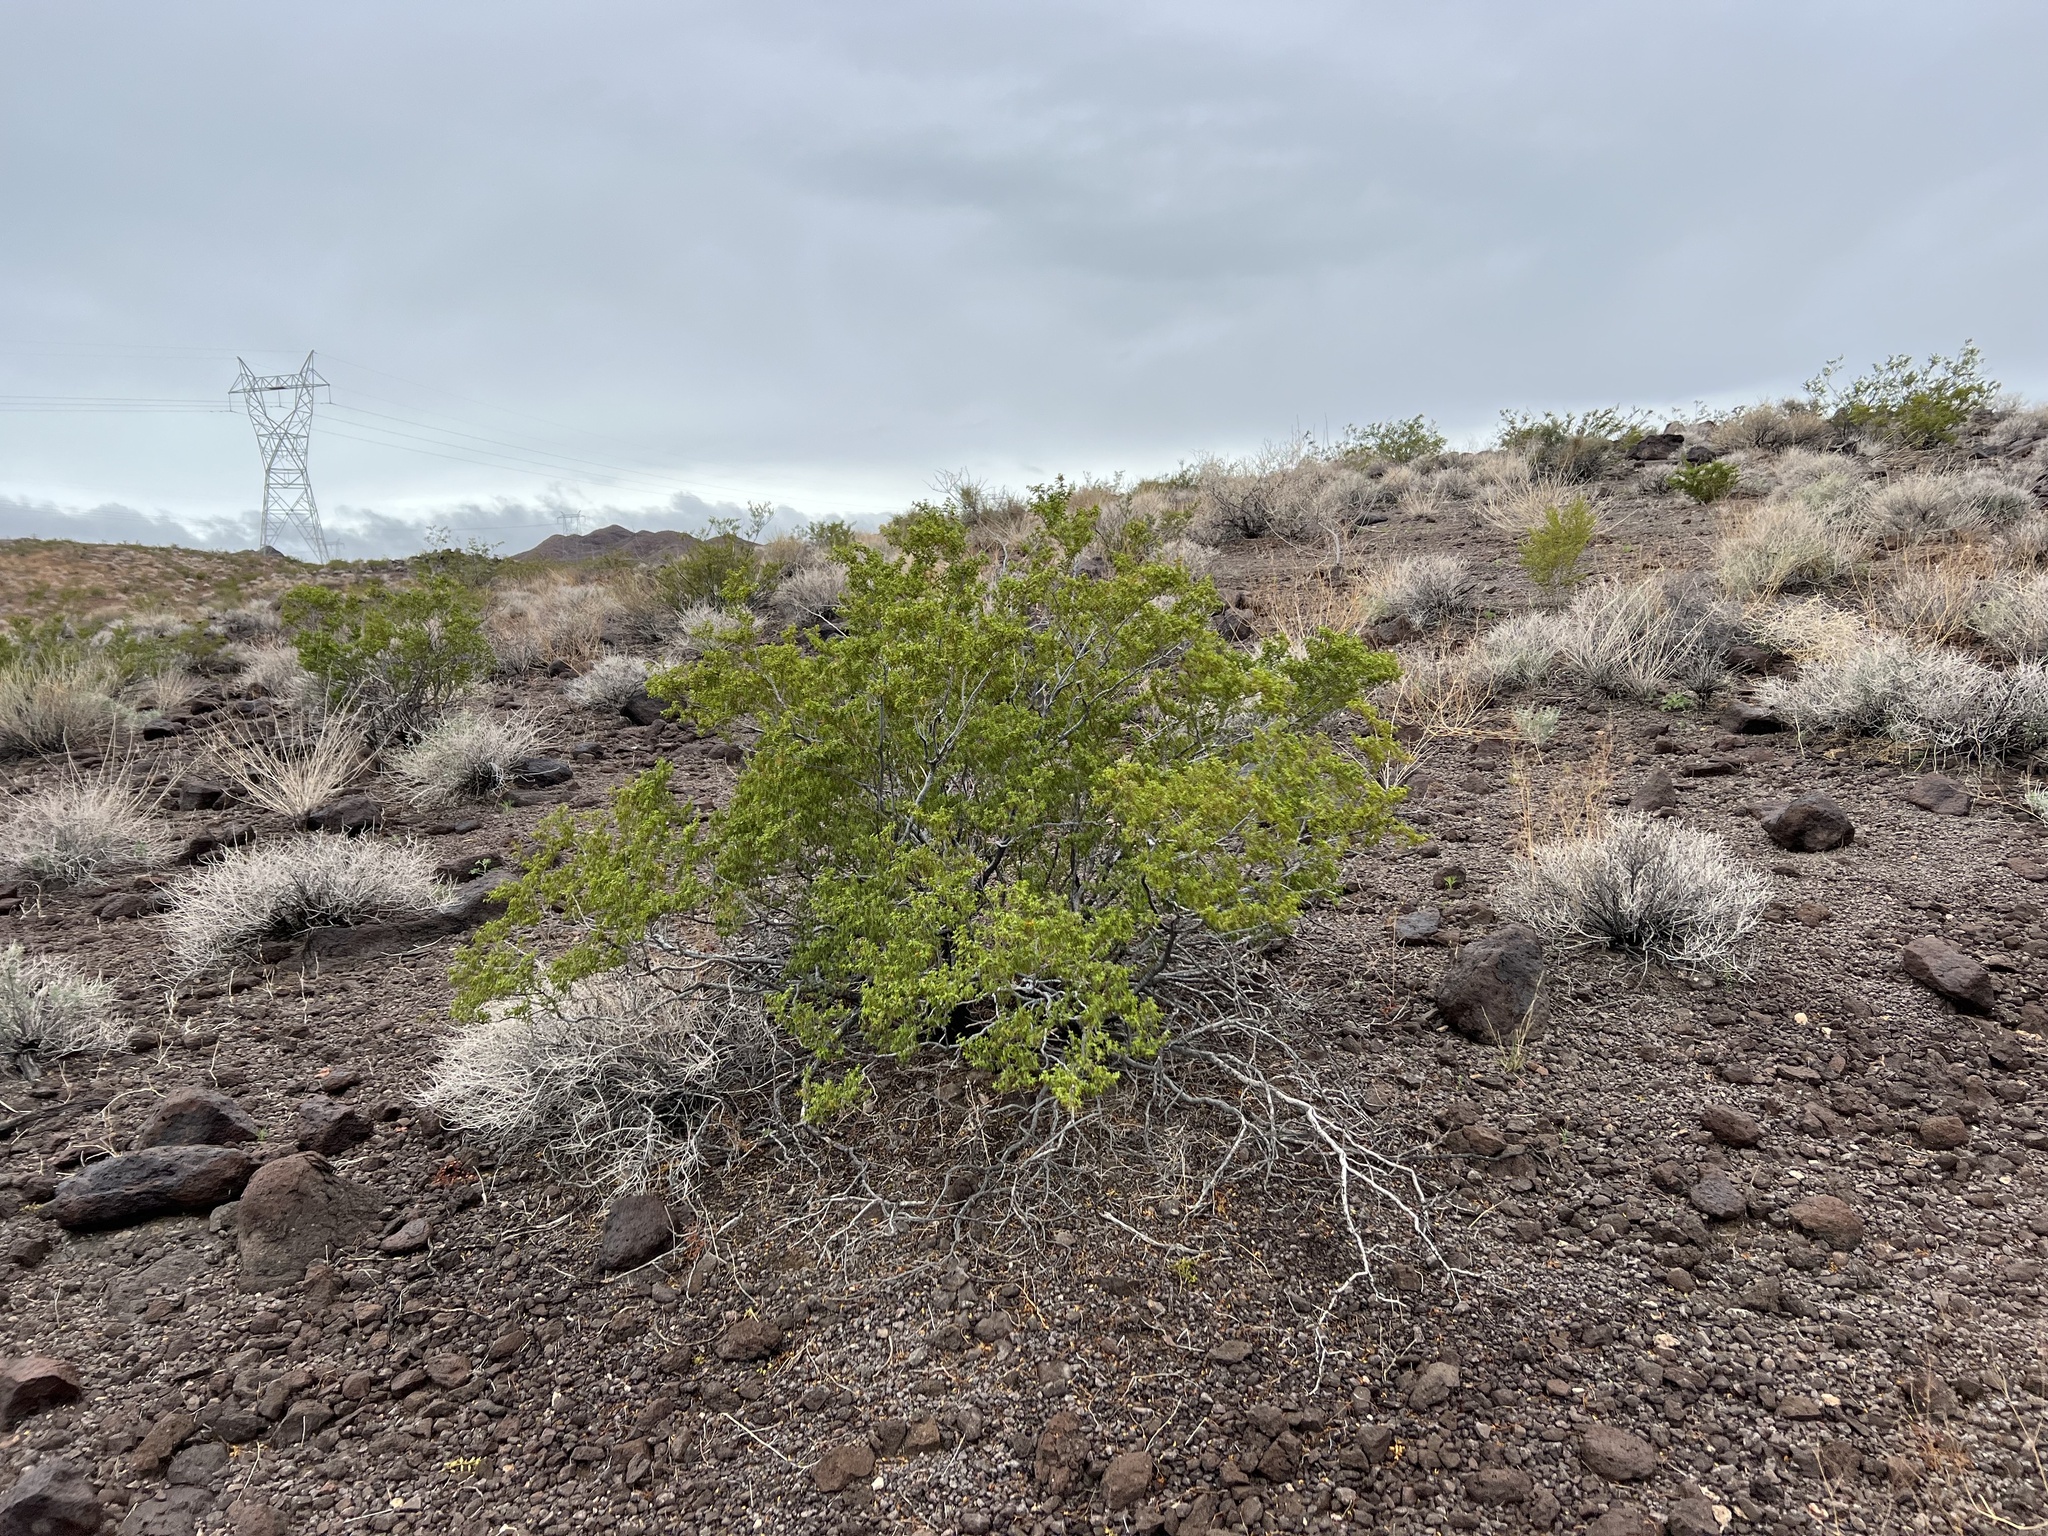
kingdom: Plantae
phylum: Tracheophyta
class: Magnoliopsida
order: Zygophyllales
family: Zygophyllaceae
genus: Larrea
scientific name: Larrea tridentata
